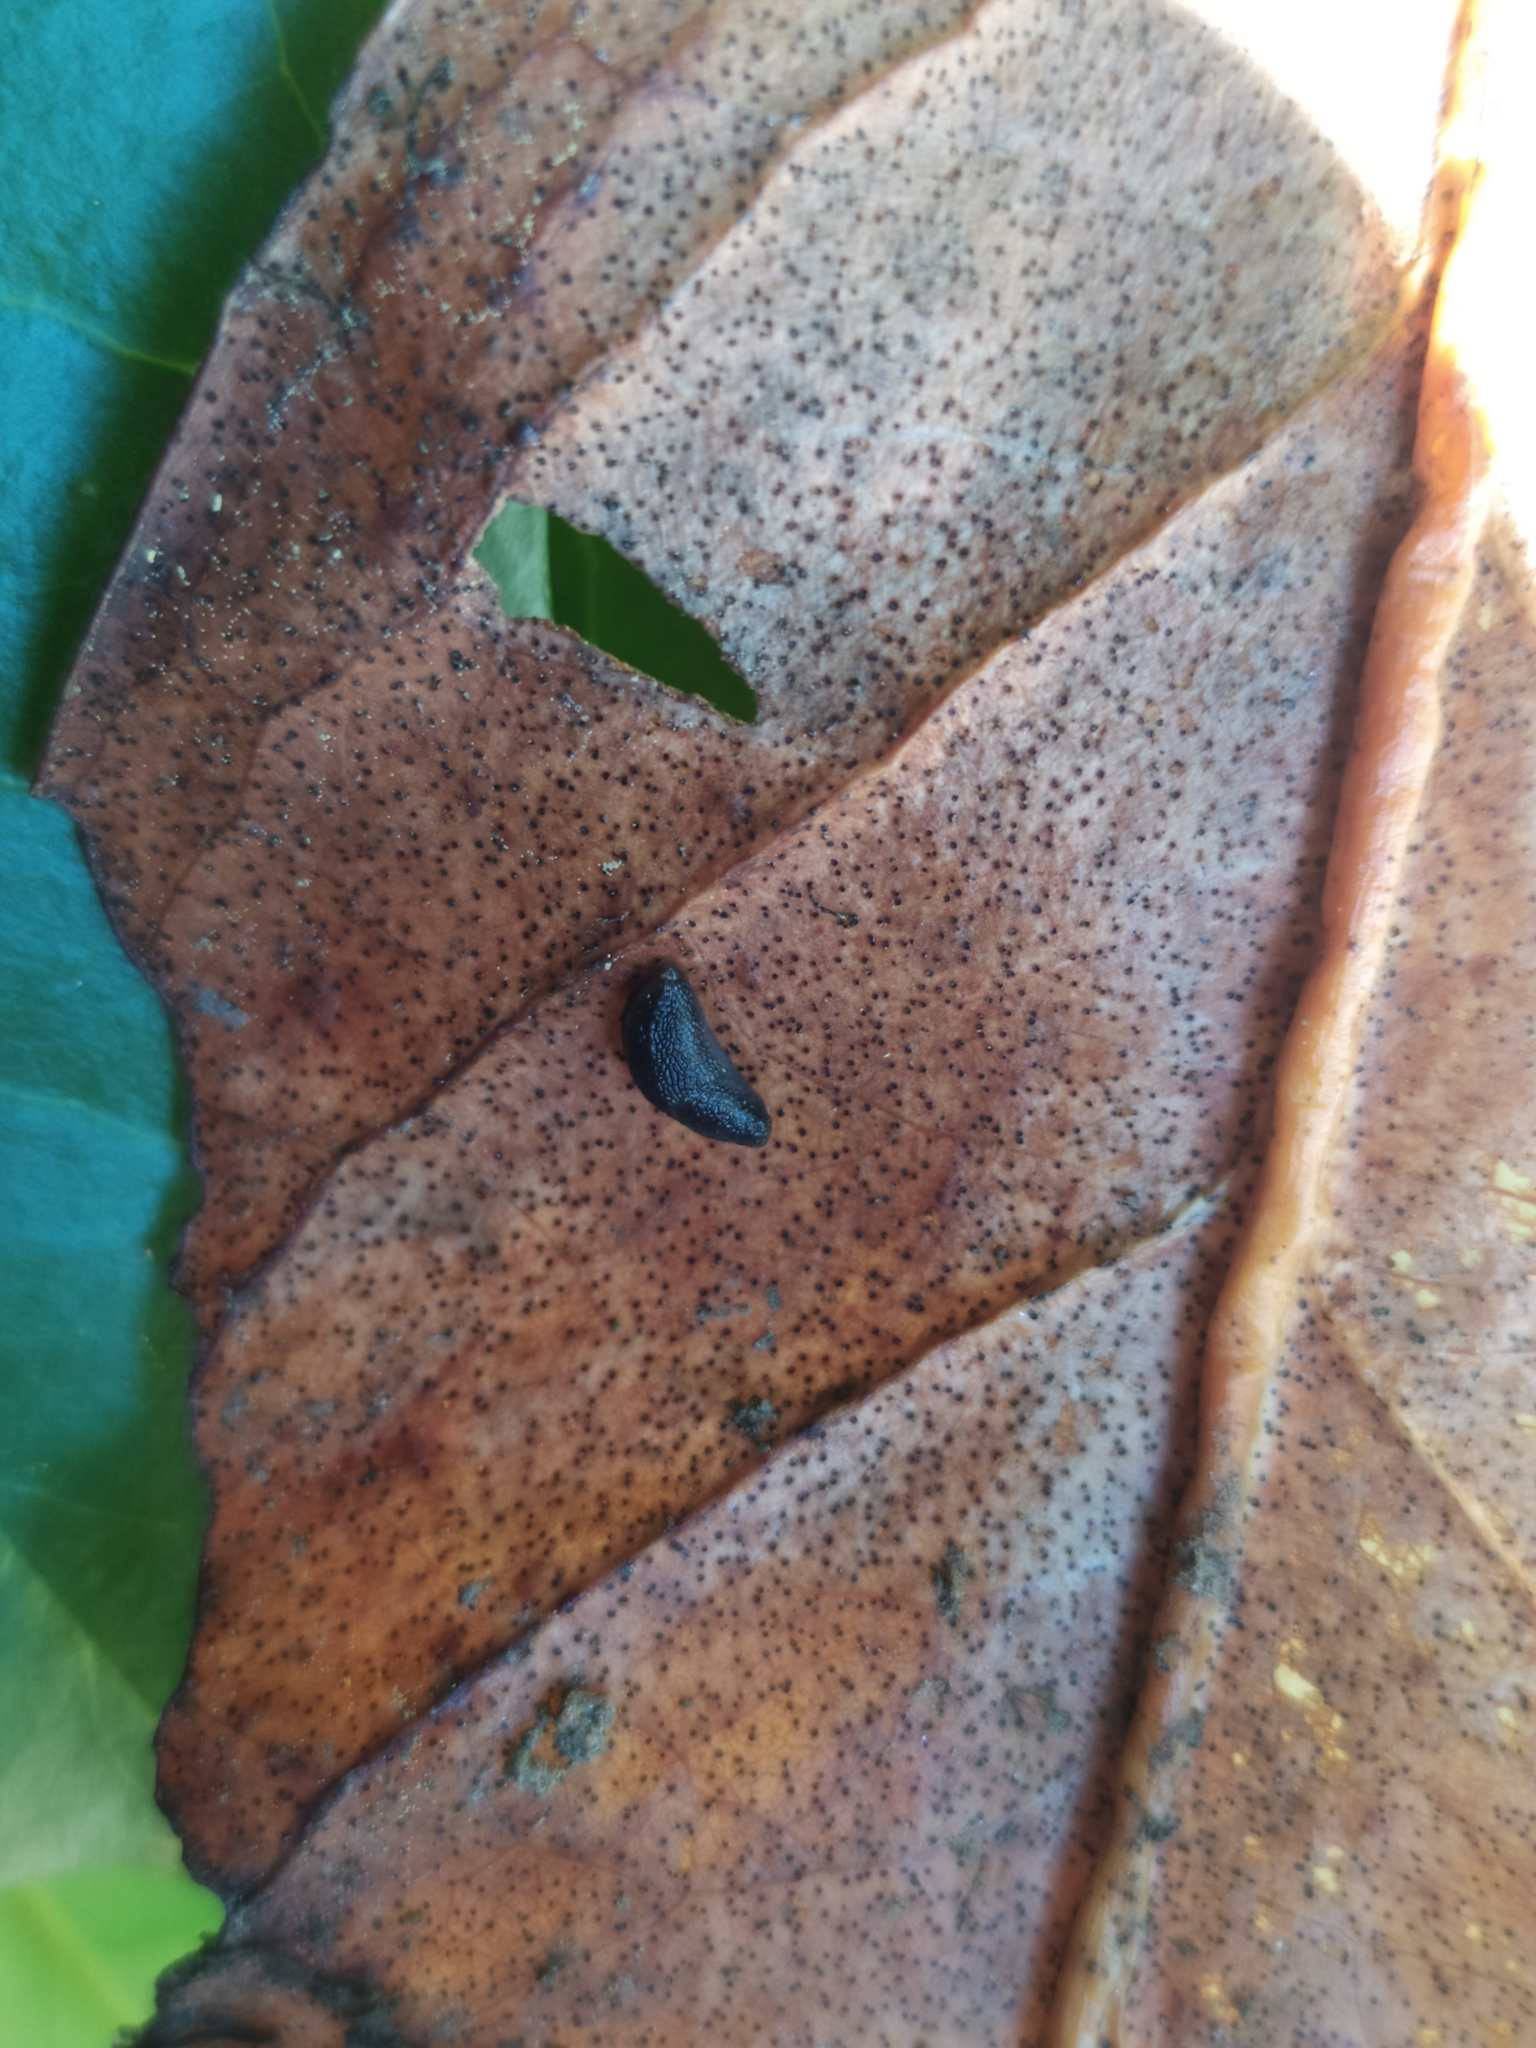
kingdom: Fungi
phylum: Ascomycota
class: Leotiomycetes
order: Helotiales
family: Cenangiaceae
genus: Trochila
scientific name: Trochila laurocerasi
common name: Laurel speckle
